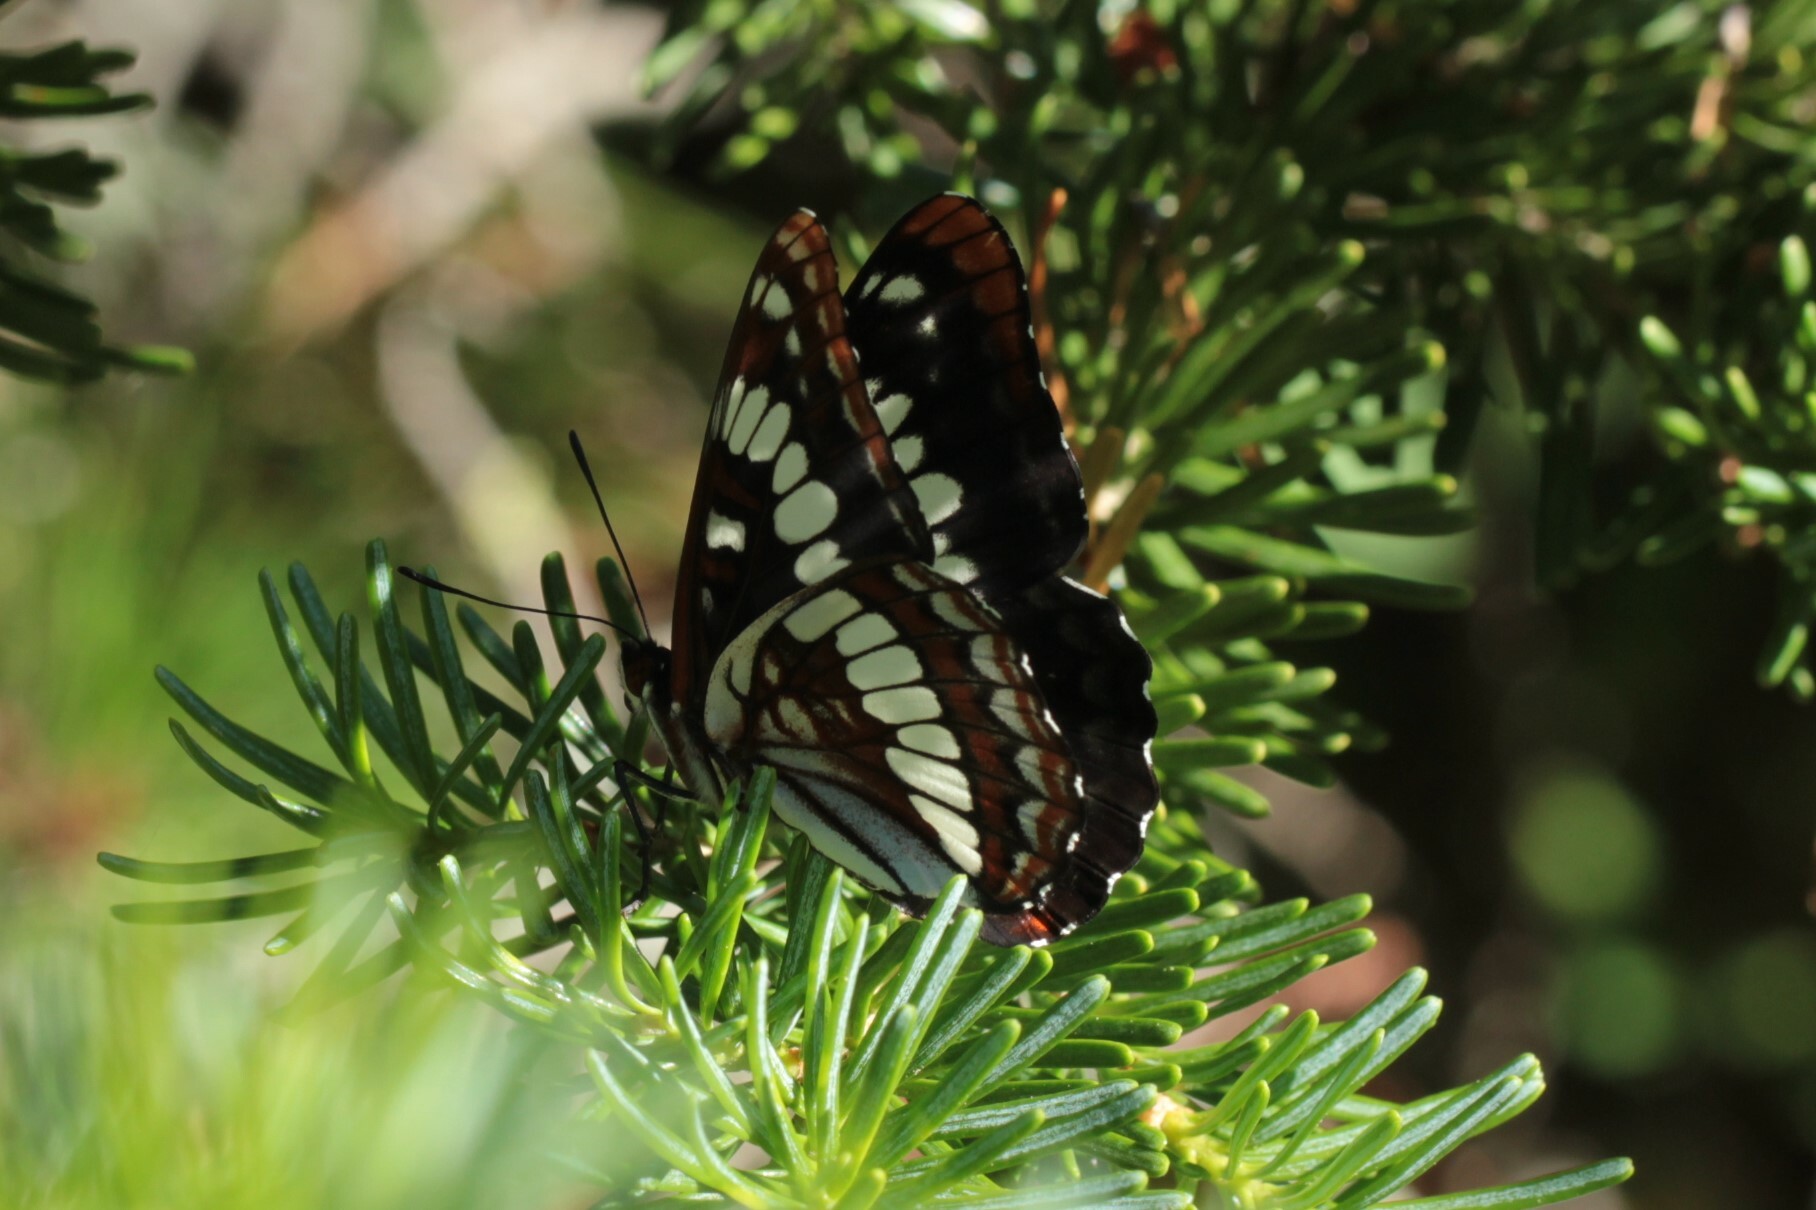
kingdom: Animalia
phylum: Arthropoda
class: Insecta
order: Lepidoptera
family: Nymphalidae
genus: Limenitis
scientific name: Limenitis lorquini
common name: Lorquin's admiral
